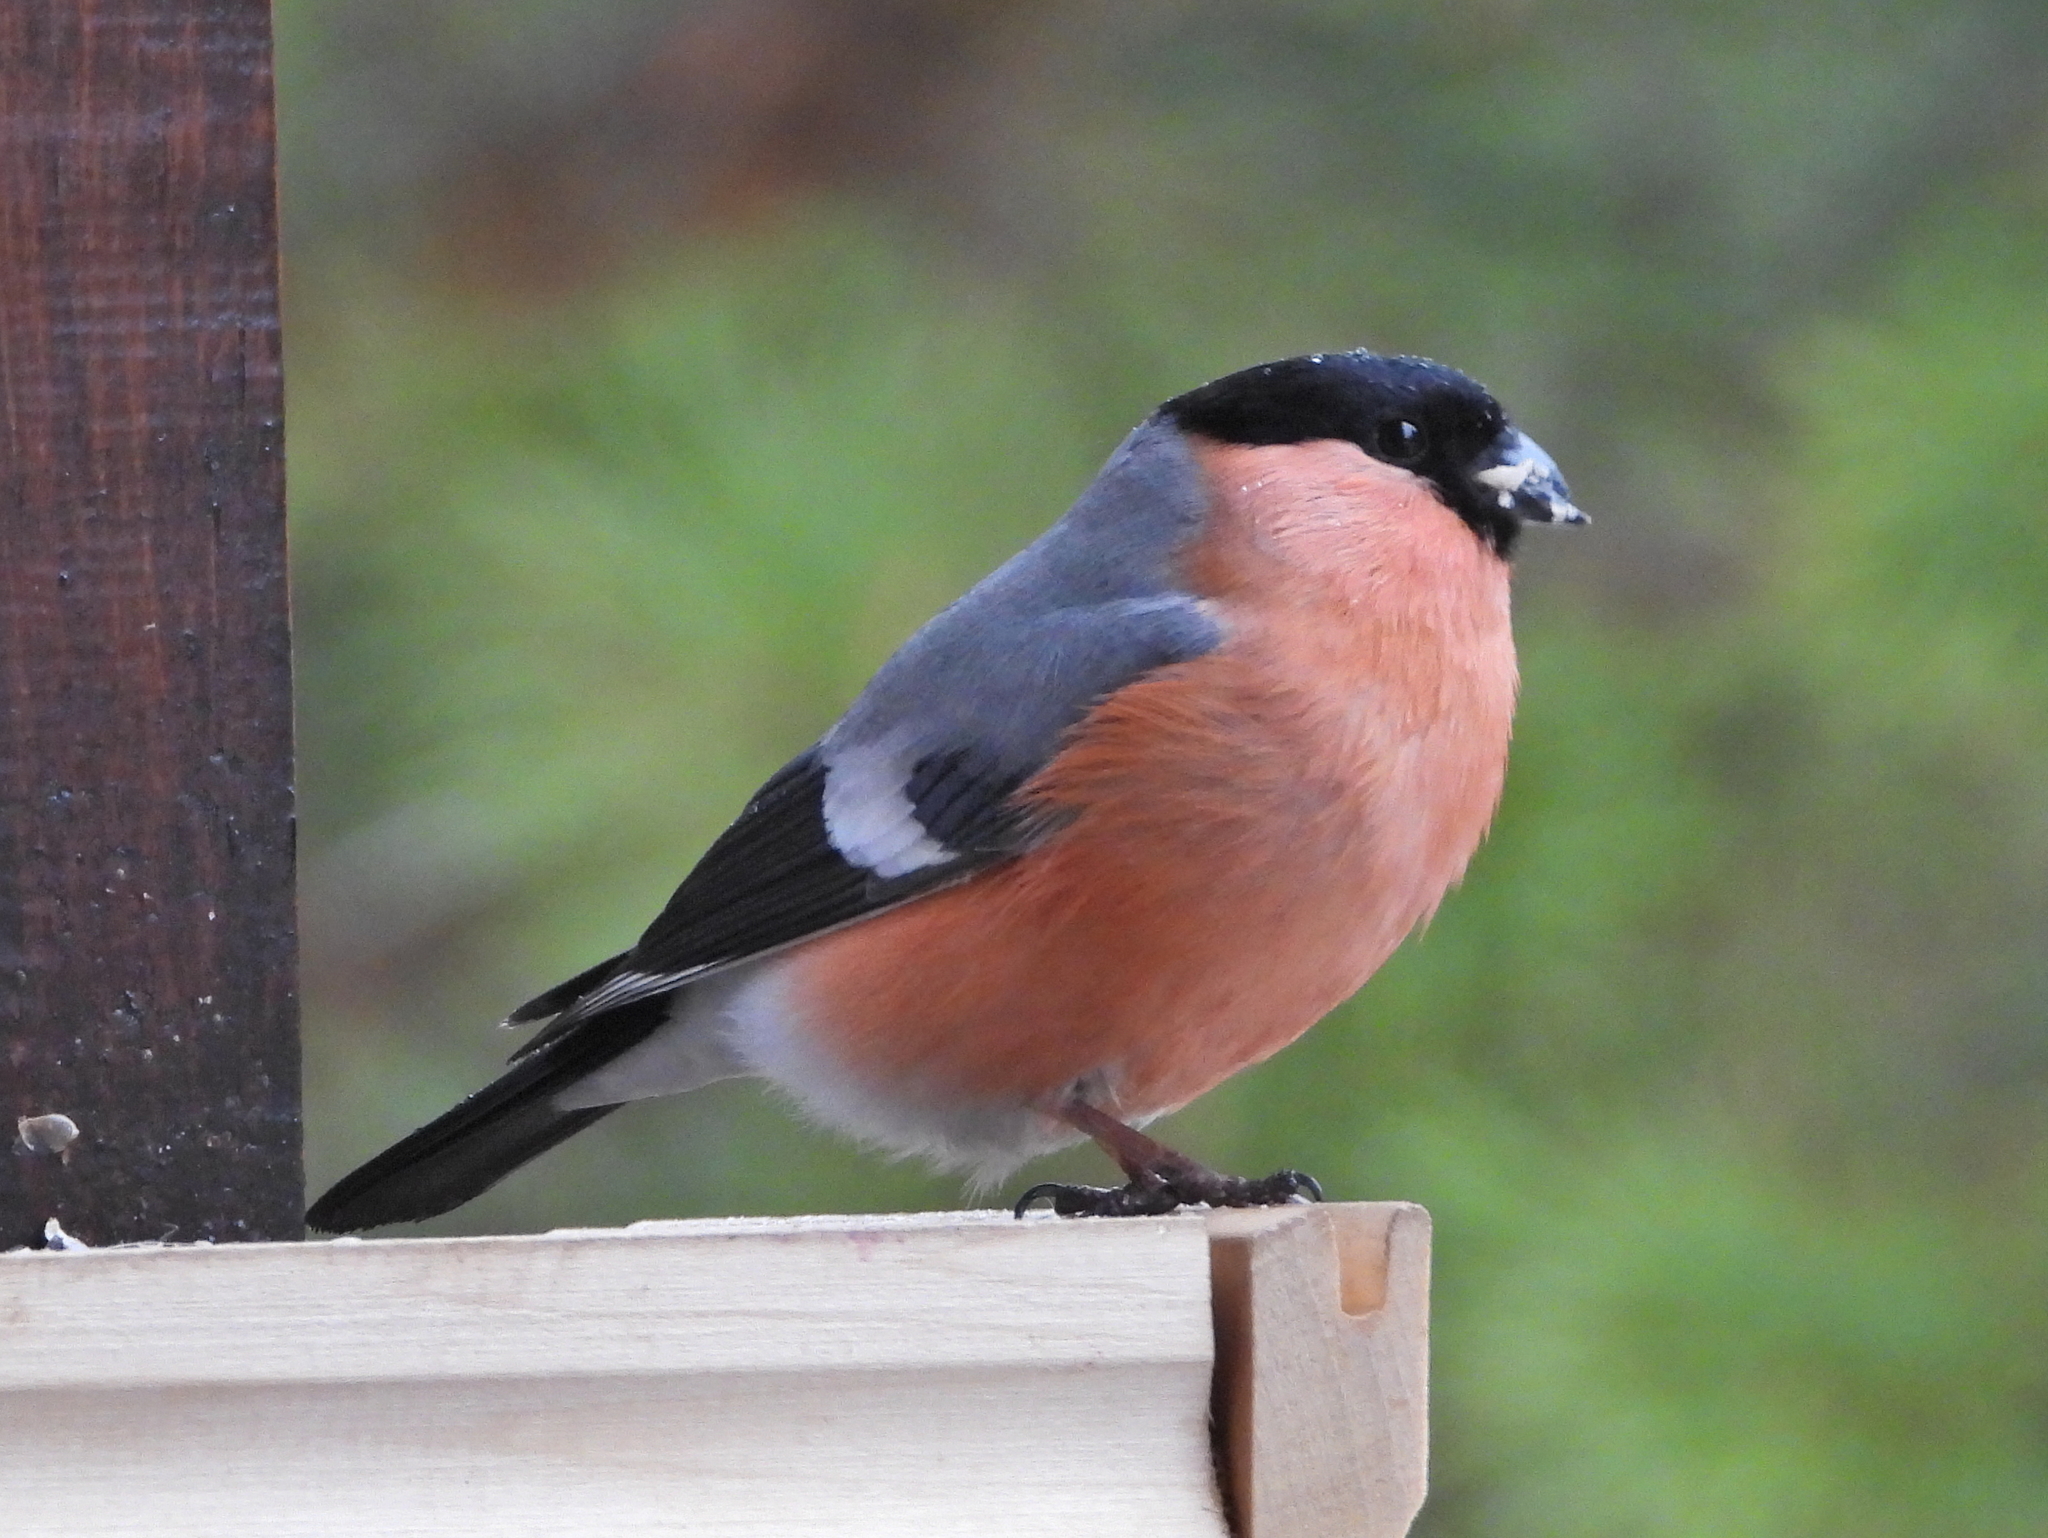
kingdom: Animalia
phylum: Chordata
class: Aves
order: Passeriformes
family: Fringillidae
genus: Pyrrhula
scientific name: Pyrrhula pyrrhula
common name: Eurasian bullfinch
